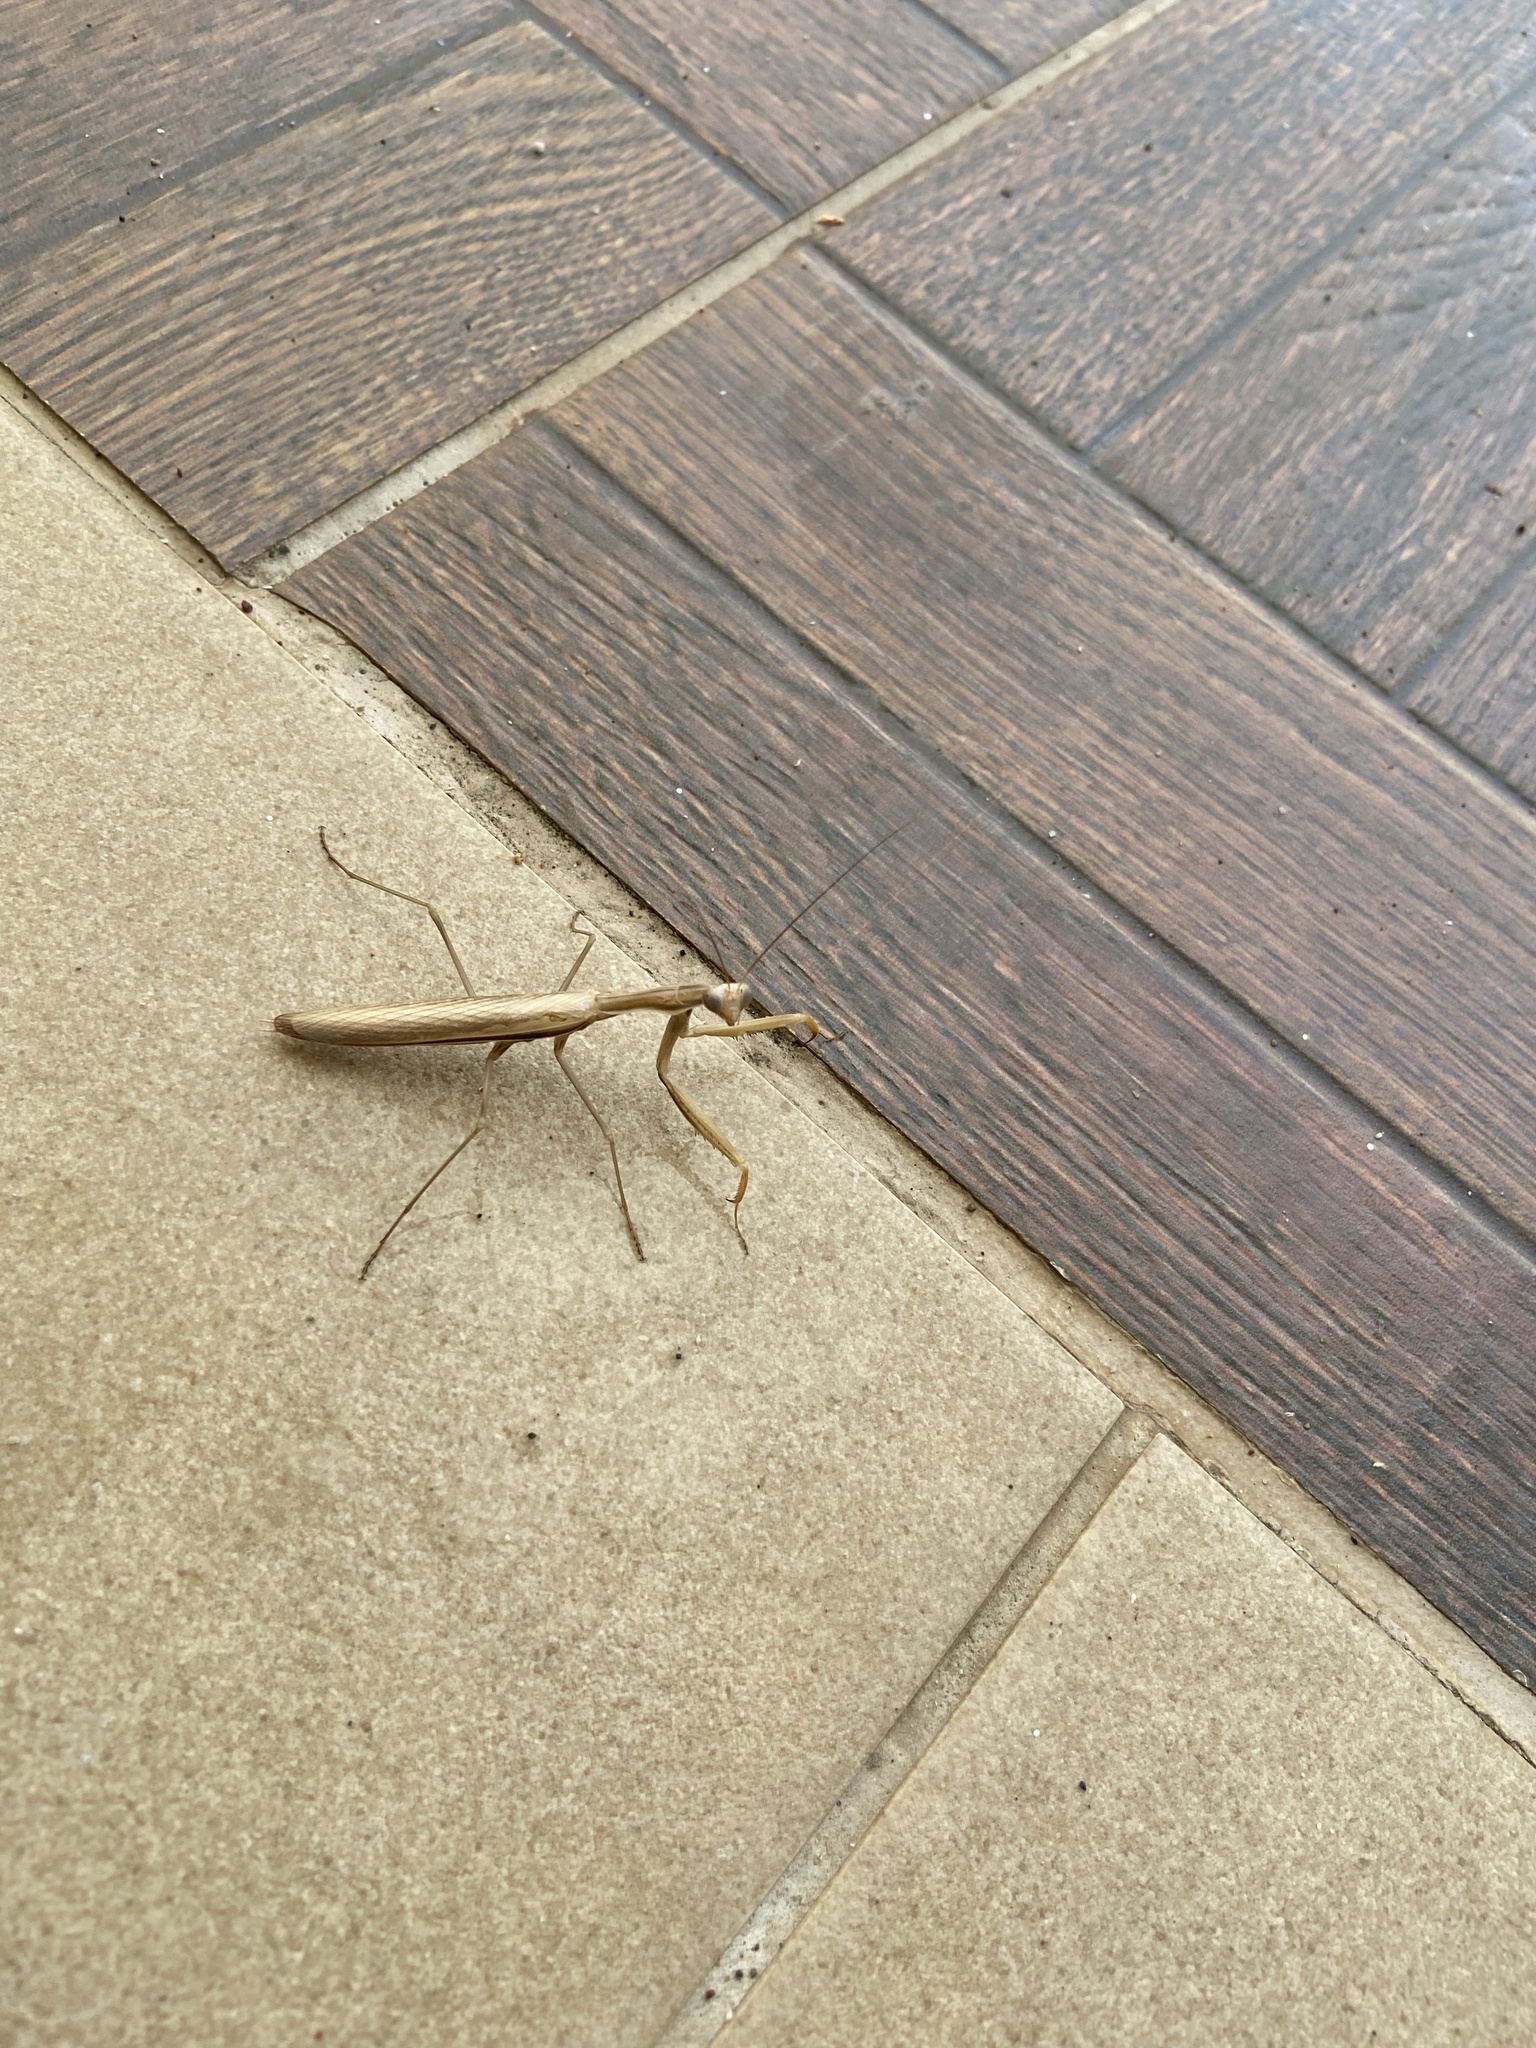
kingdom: Animalia
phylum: Arthropoda
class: Insecta
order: Mantodea
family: Mantidae
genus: Mantis
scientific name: Mantis religiosa
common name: Praying mantis
